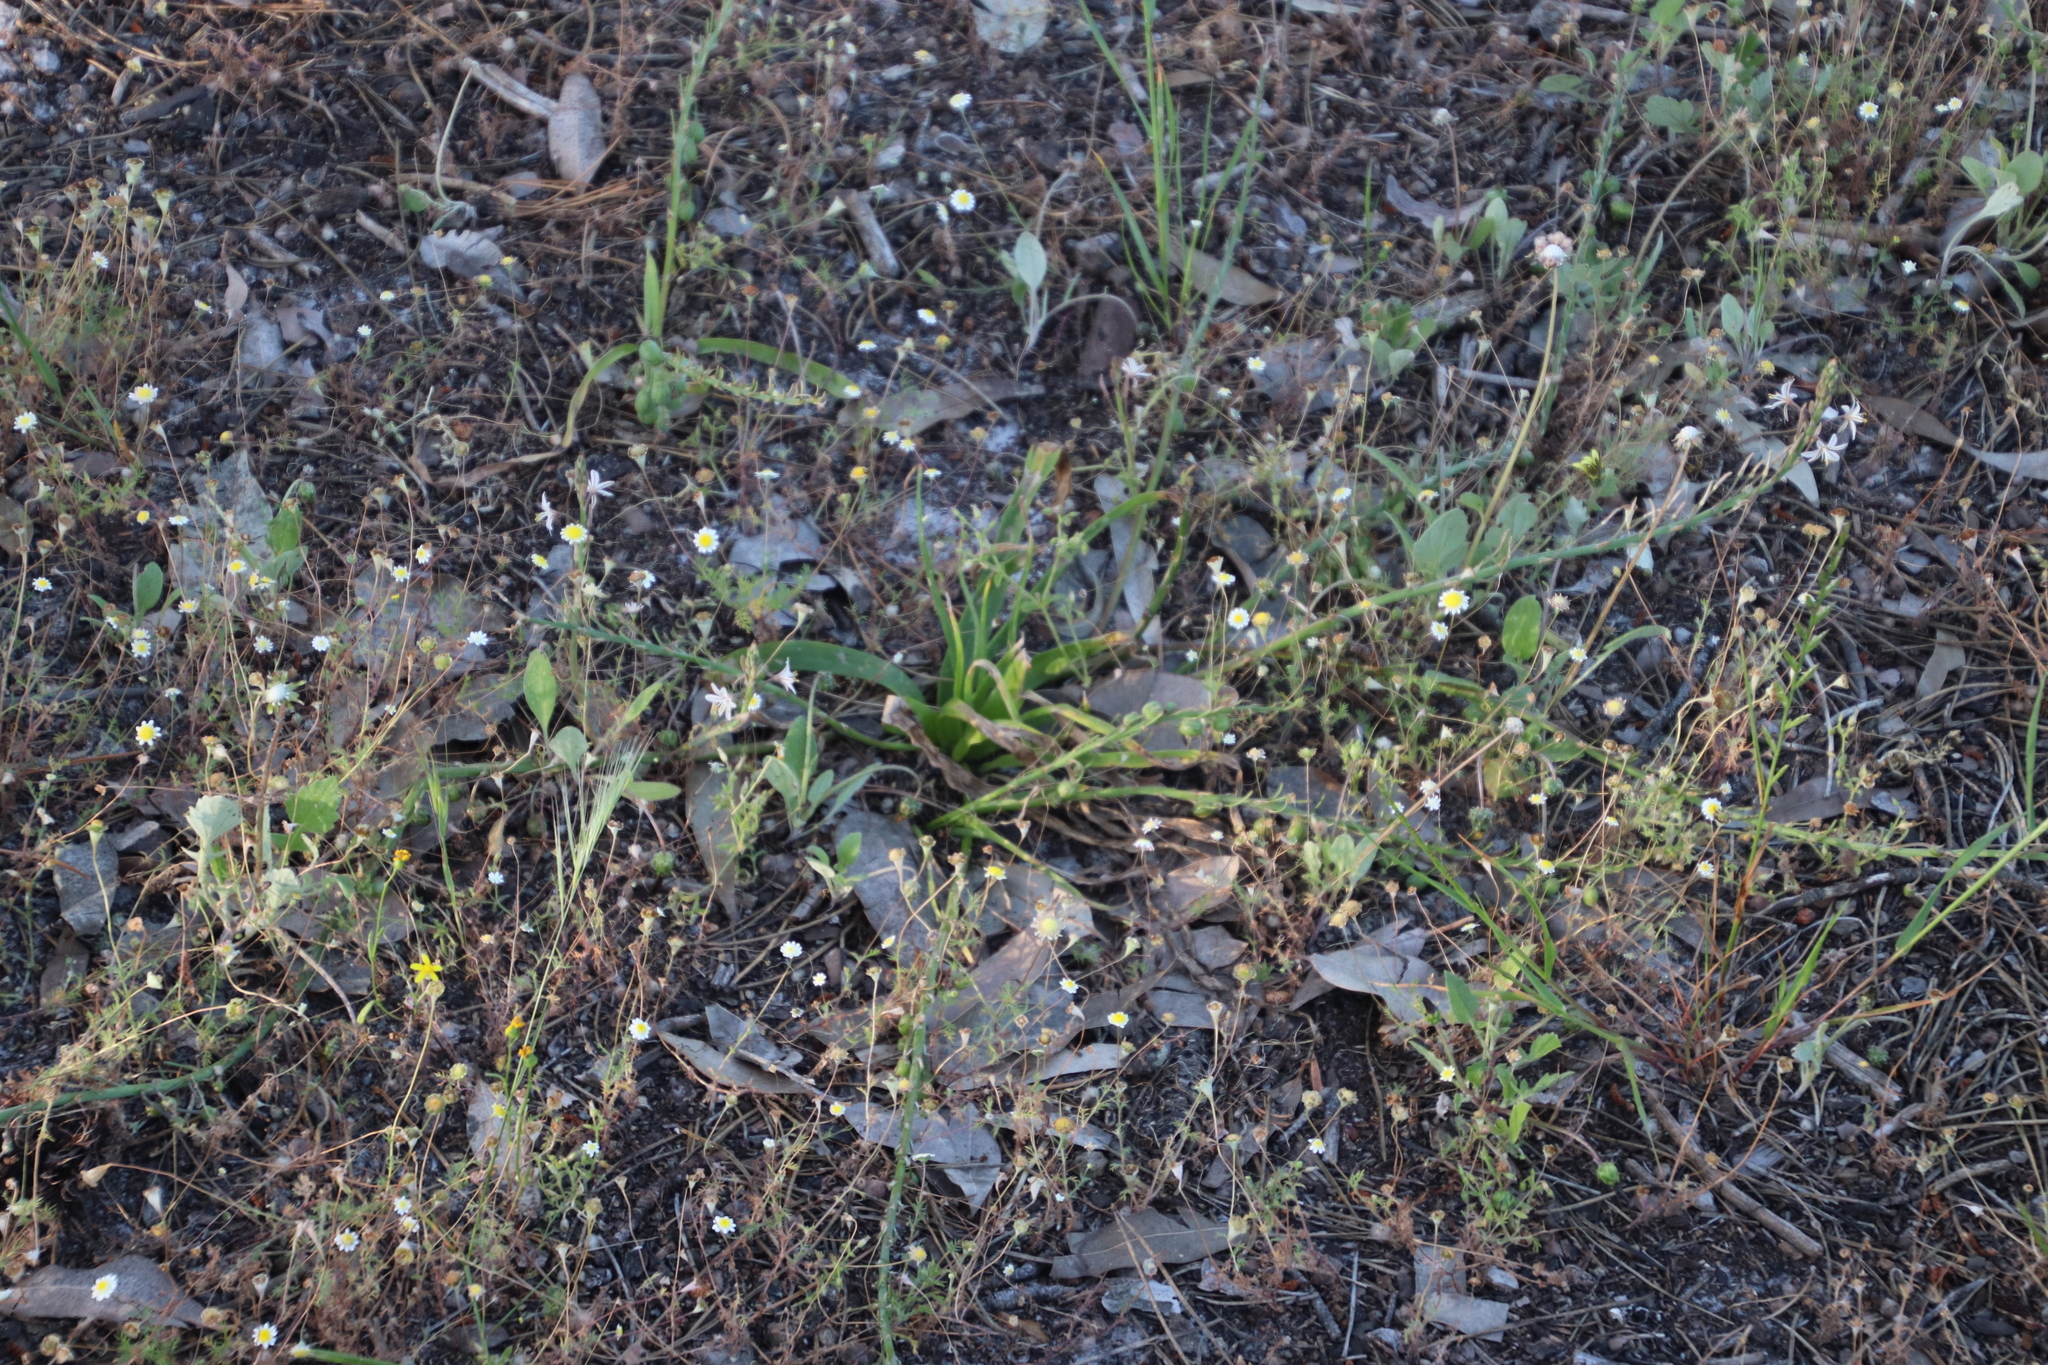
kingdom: Plantae
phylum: Tracheophyta
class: Liliopsida
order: Asparagales
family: Asphodelaceae
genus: Trachyandra
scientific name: Trachyandra ciliata
